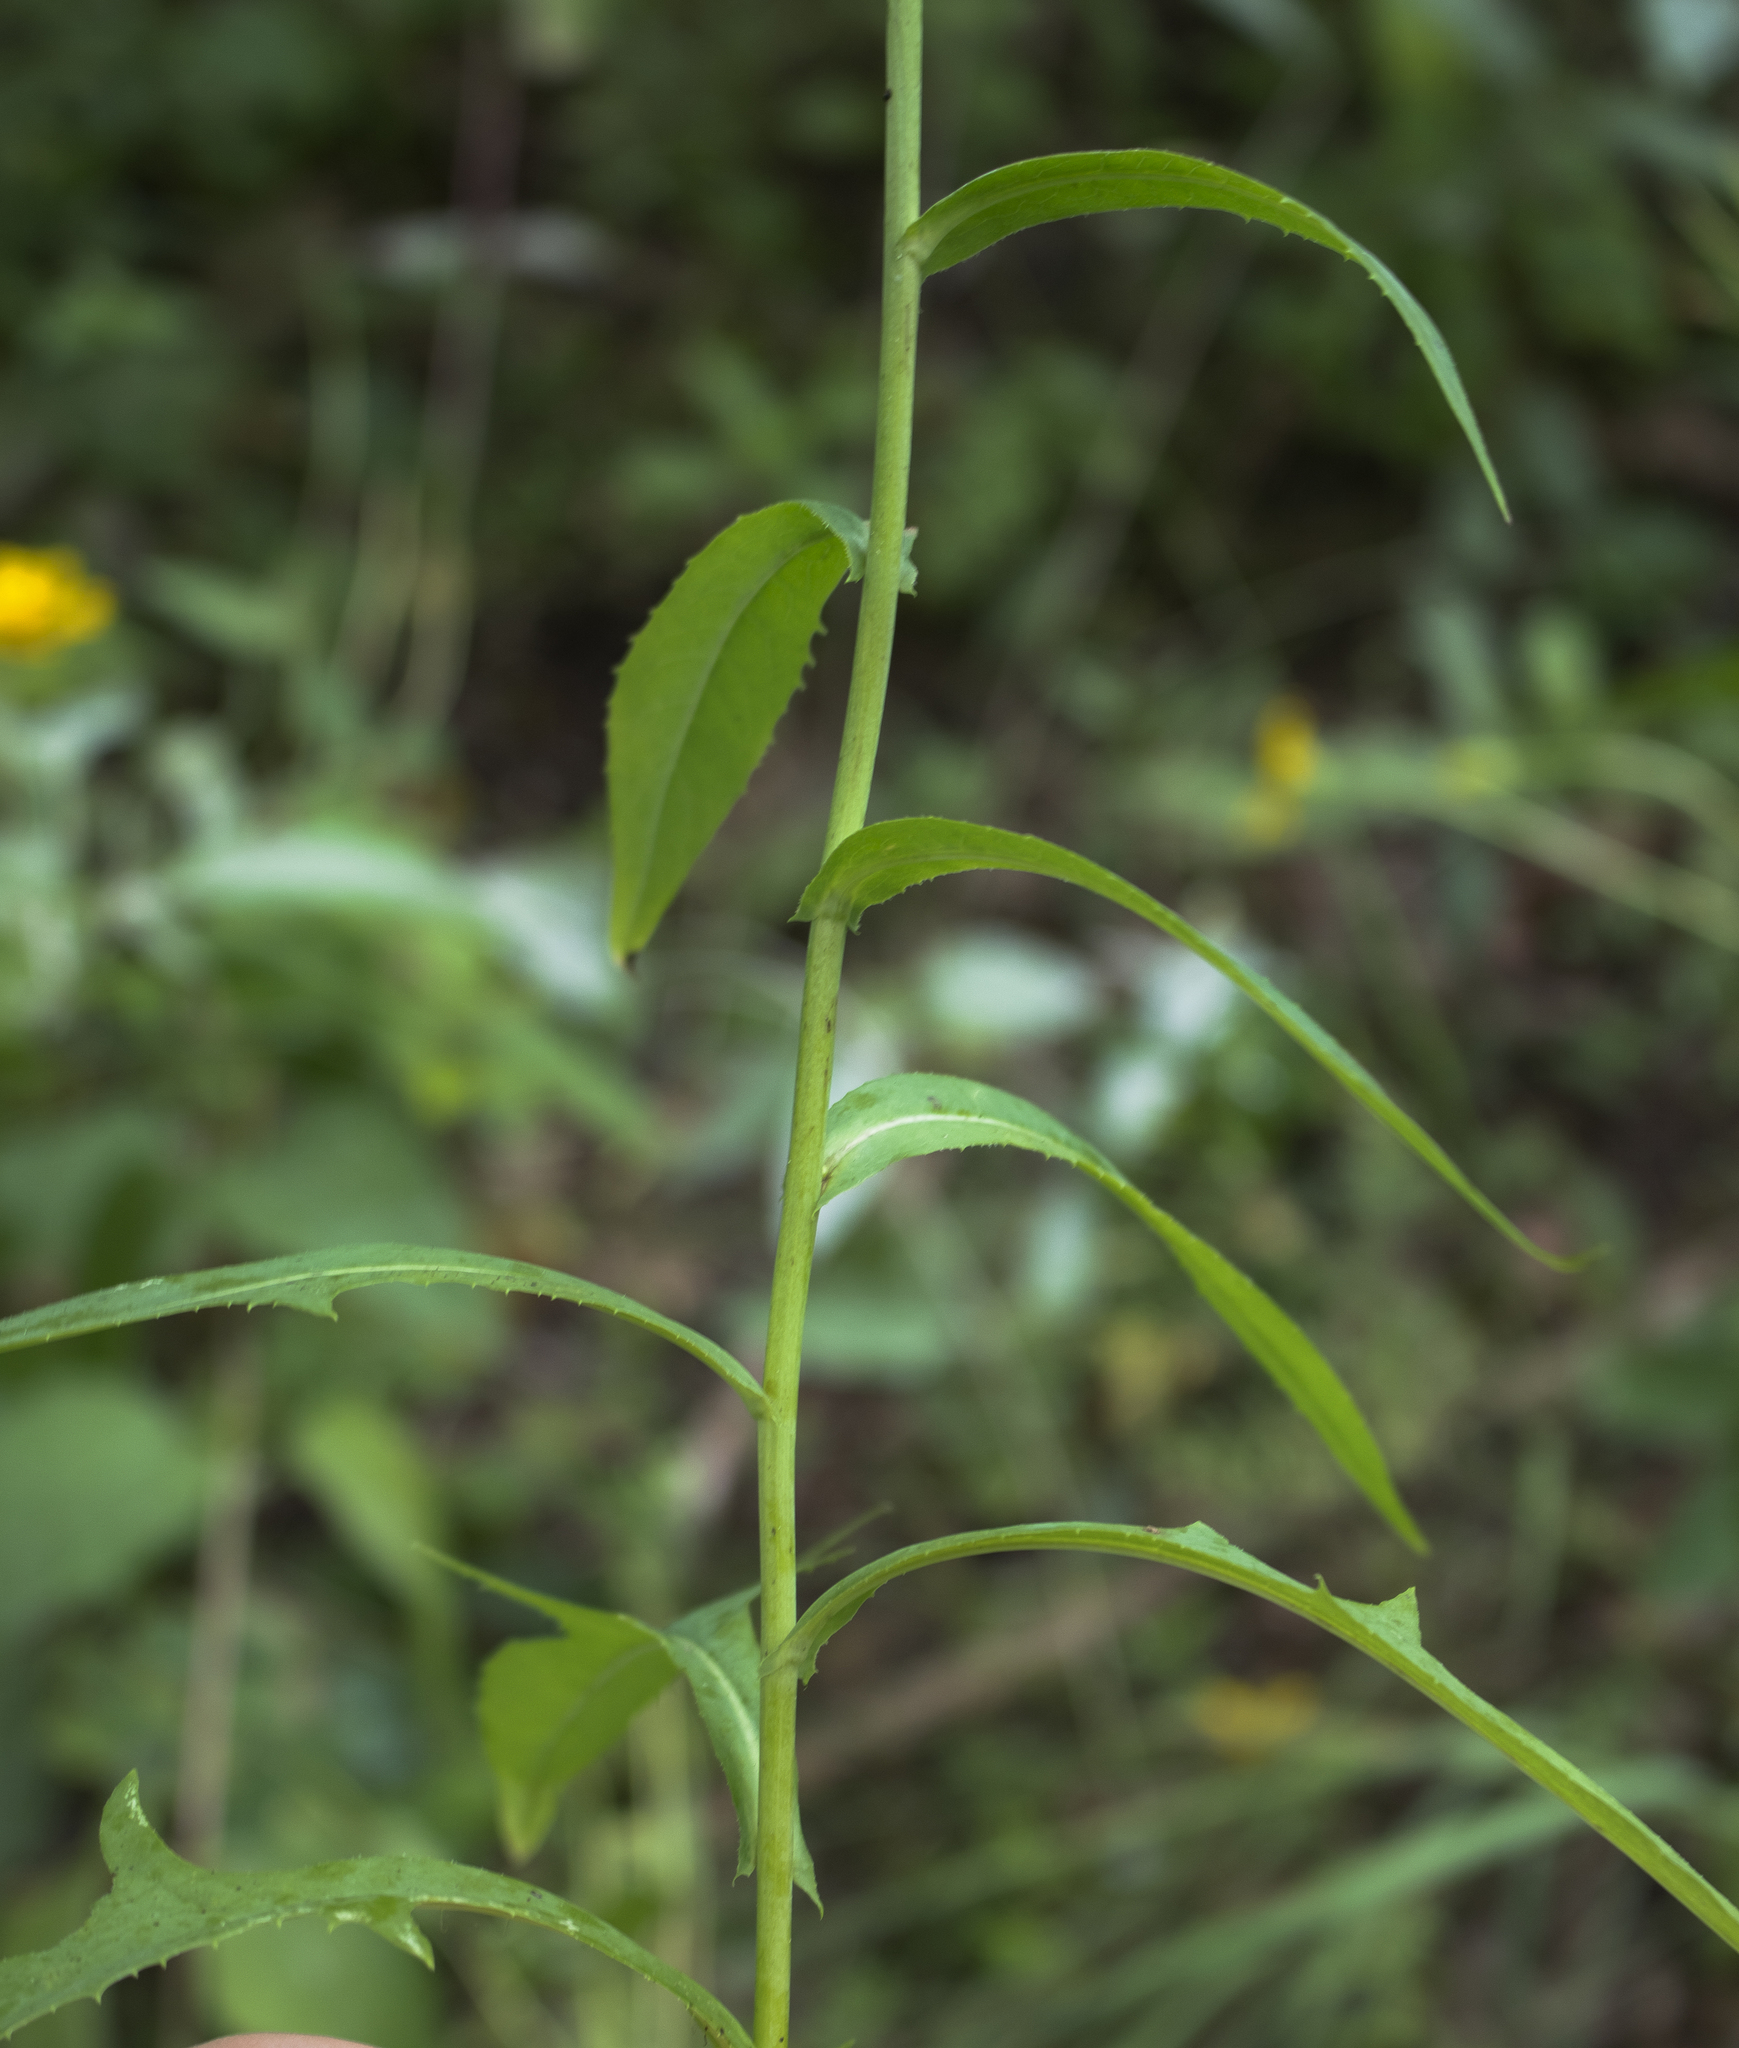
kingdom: Plantae
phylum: Tracheophyta
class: Magnoliopsida
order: Asterales
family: Asteraceae
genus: Lactuca
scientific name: Lactuca canadensis
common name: Canada lettuce
